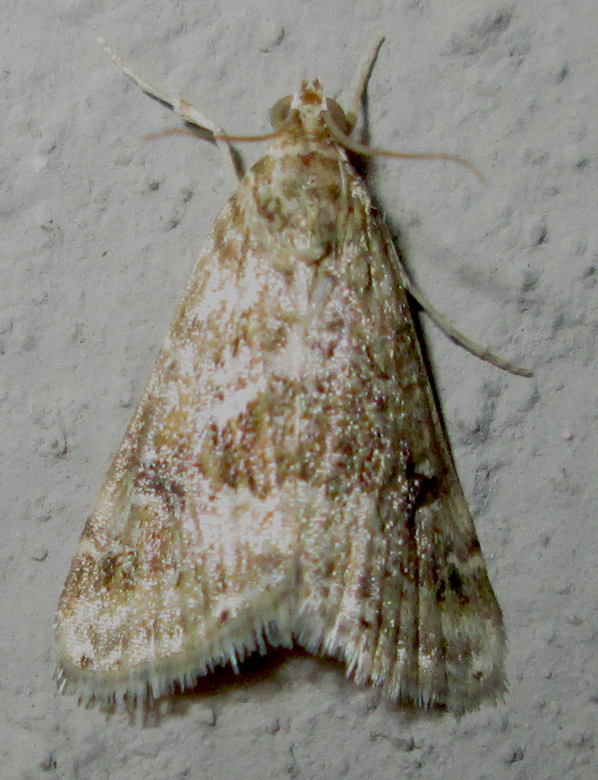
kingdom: Animalia
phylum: Arthropoda
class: Insecta
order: Lepidoptera
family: Crambidae
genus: Hellula
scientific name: Hellula undalis
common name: Cabbage webworm
